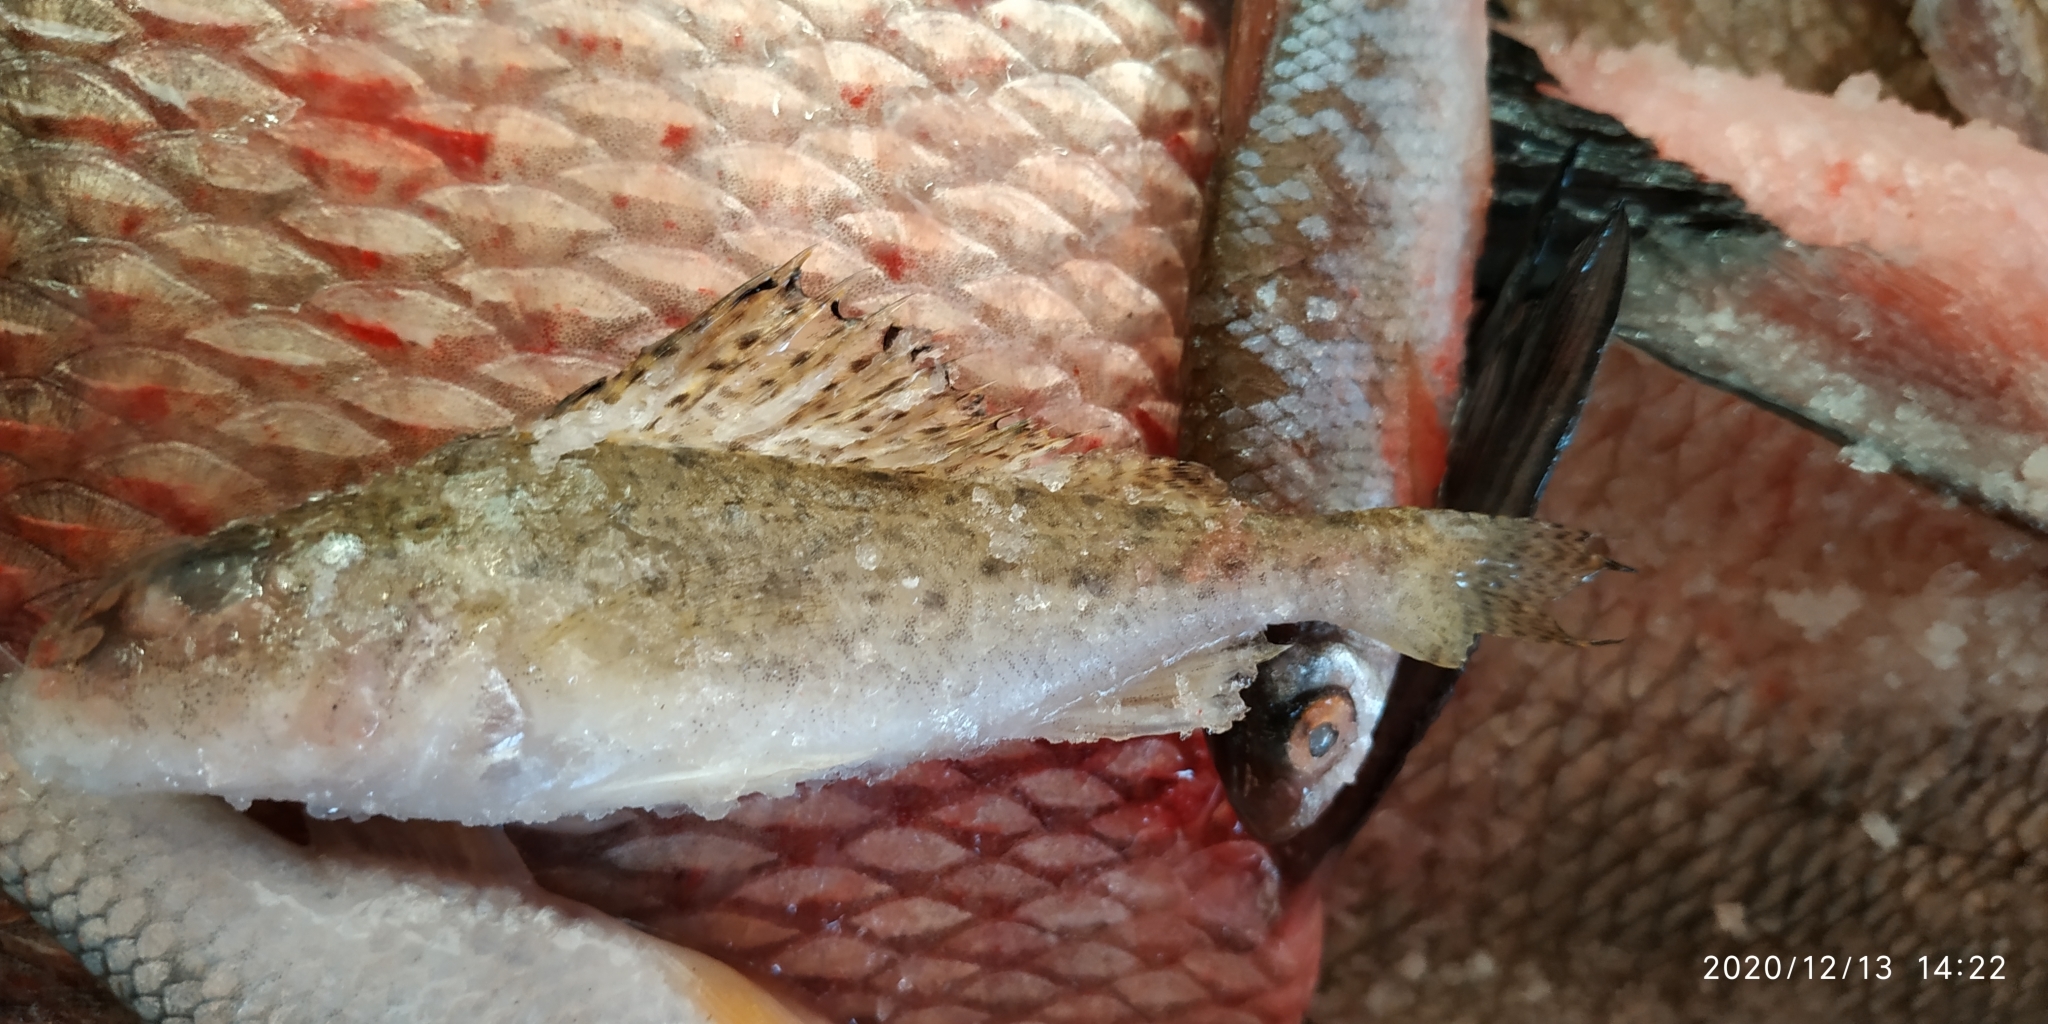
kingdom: Animalia
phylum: Chordata
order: Perciformes
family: Percidae
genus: Gymnocephalus
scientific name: Gymnocephalus cernua
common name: Ruffe
